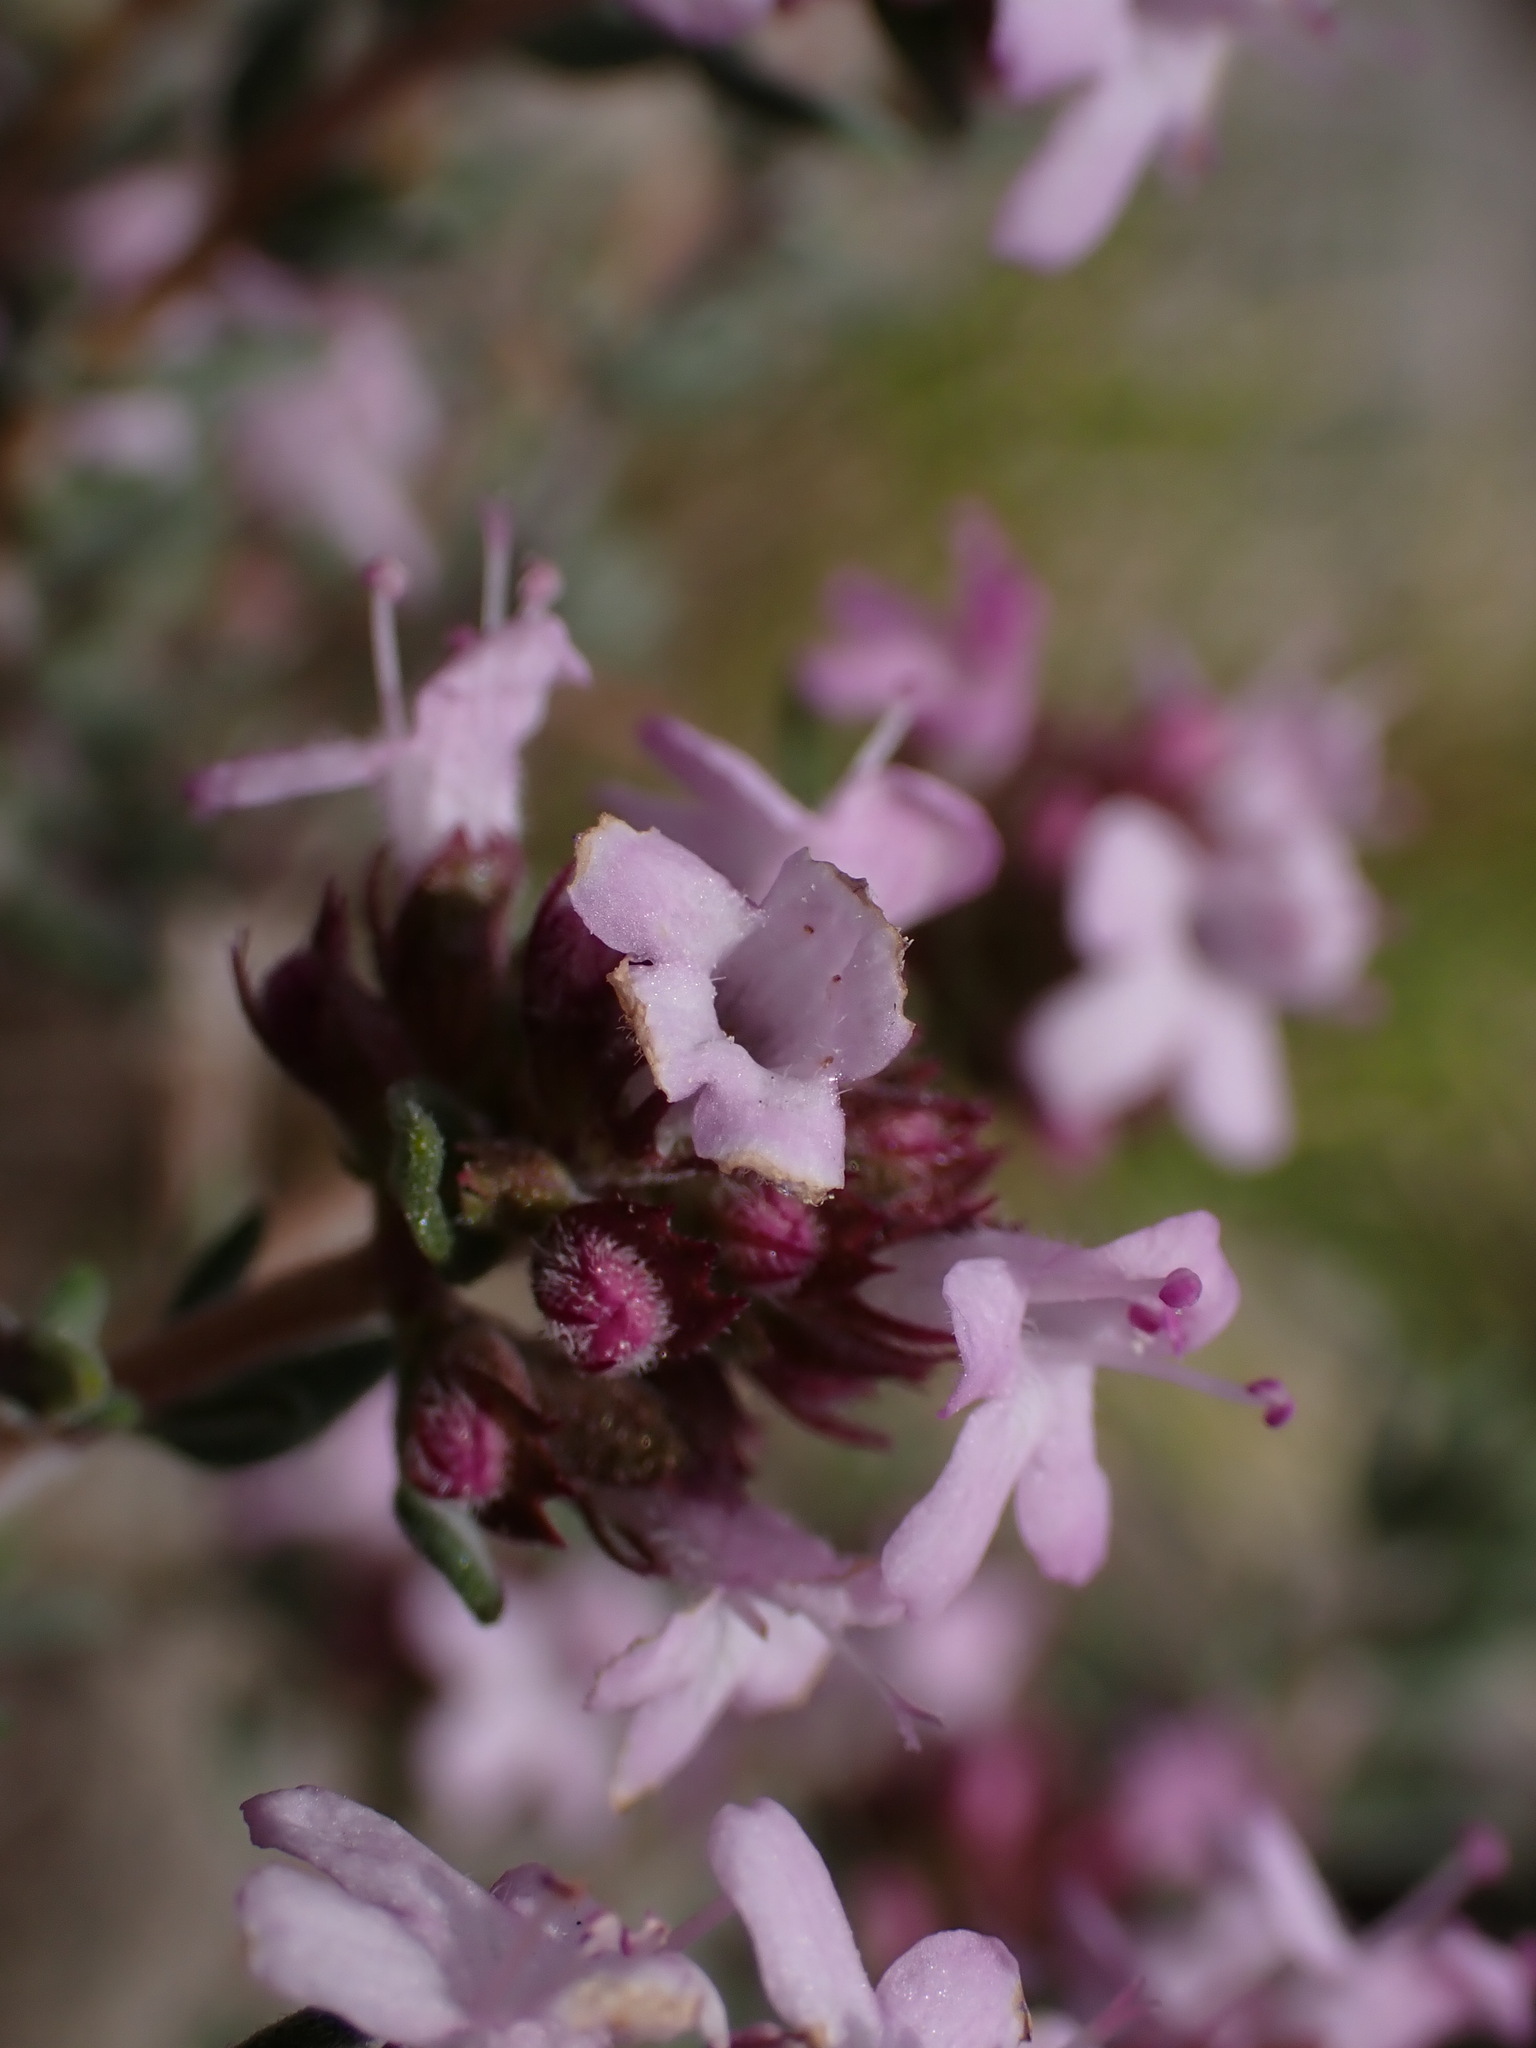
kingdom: Plantae
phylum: Tracheophyta
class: Magnoliopsida
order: Lamiales
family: Lamiaceae
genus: Thymus
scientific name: Thymus vulgaris
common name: Garden thyme
